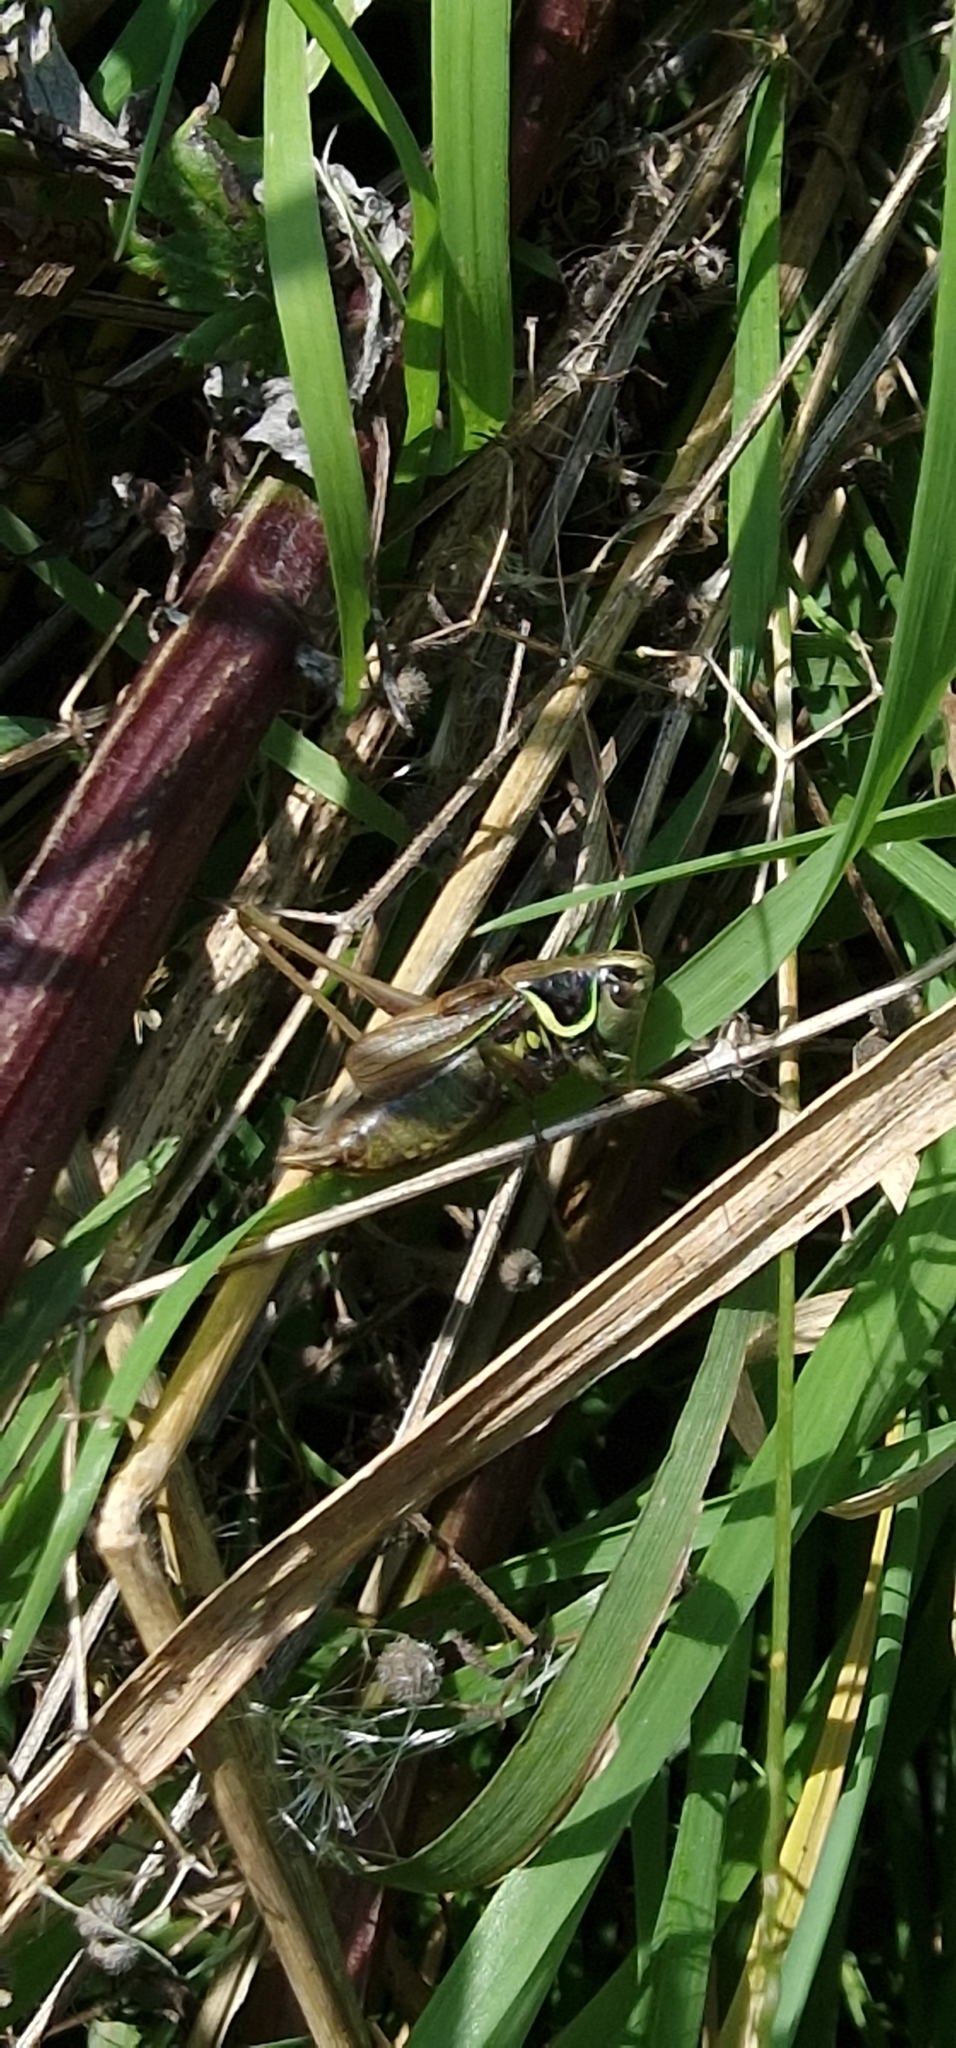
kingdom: Animalia
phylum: Arthropoda
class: Insecta
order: Orthoptera
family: Tettigoniidae
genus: Roeseliana
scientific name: Roeseliana roeselii
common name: Roesel's bush cricket
